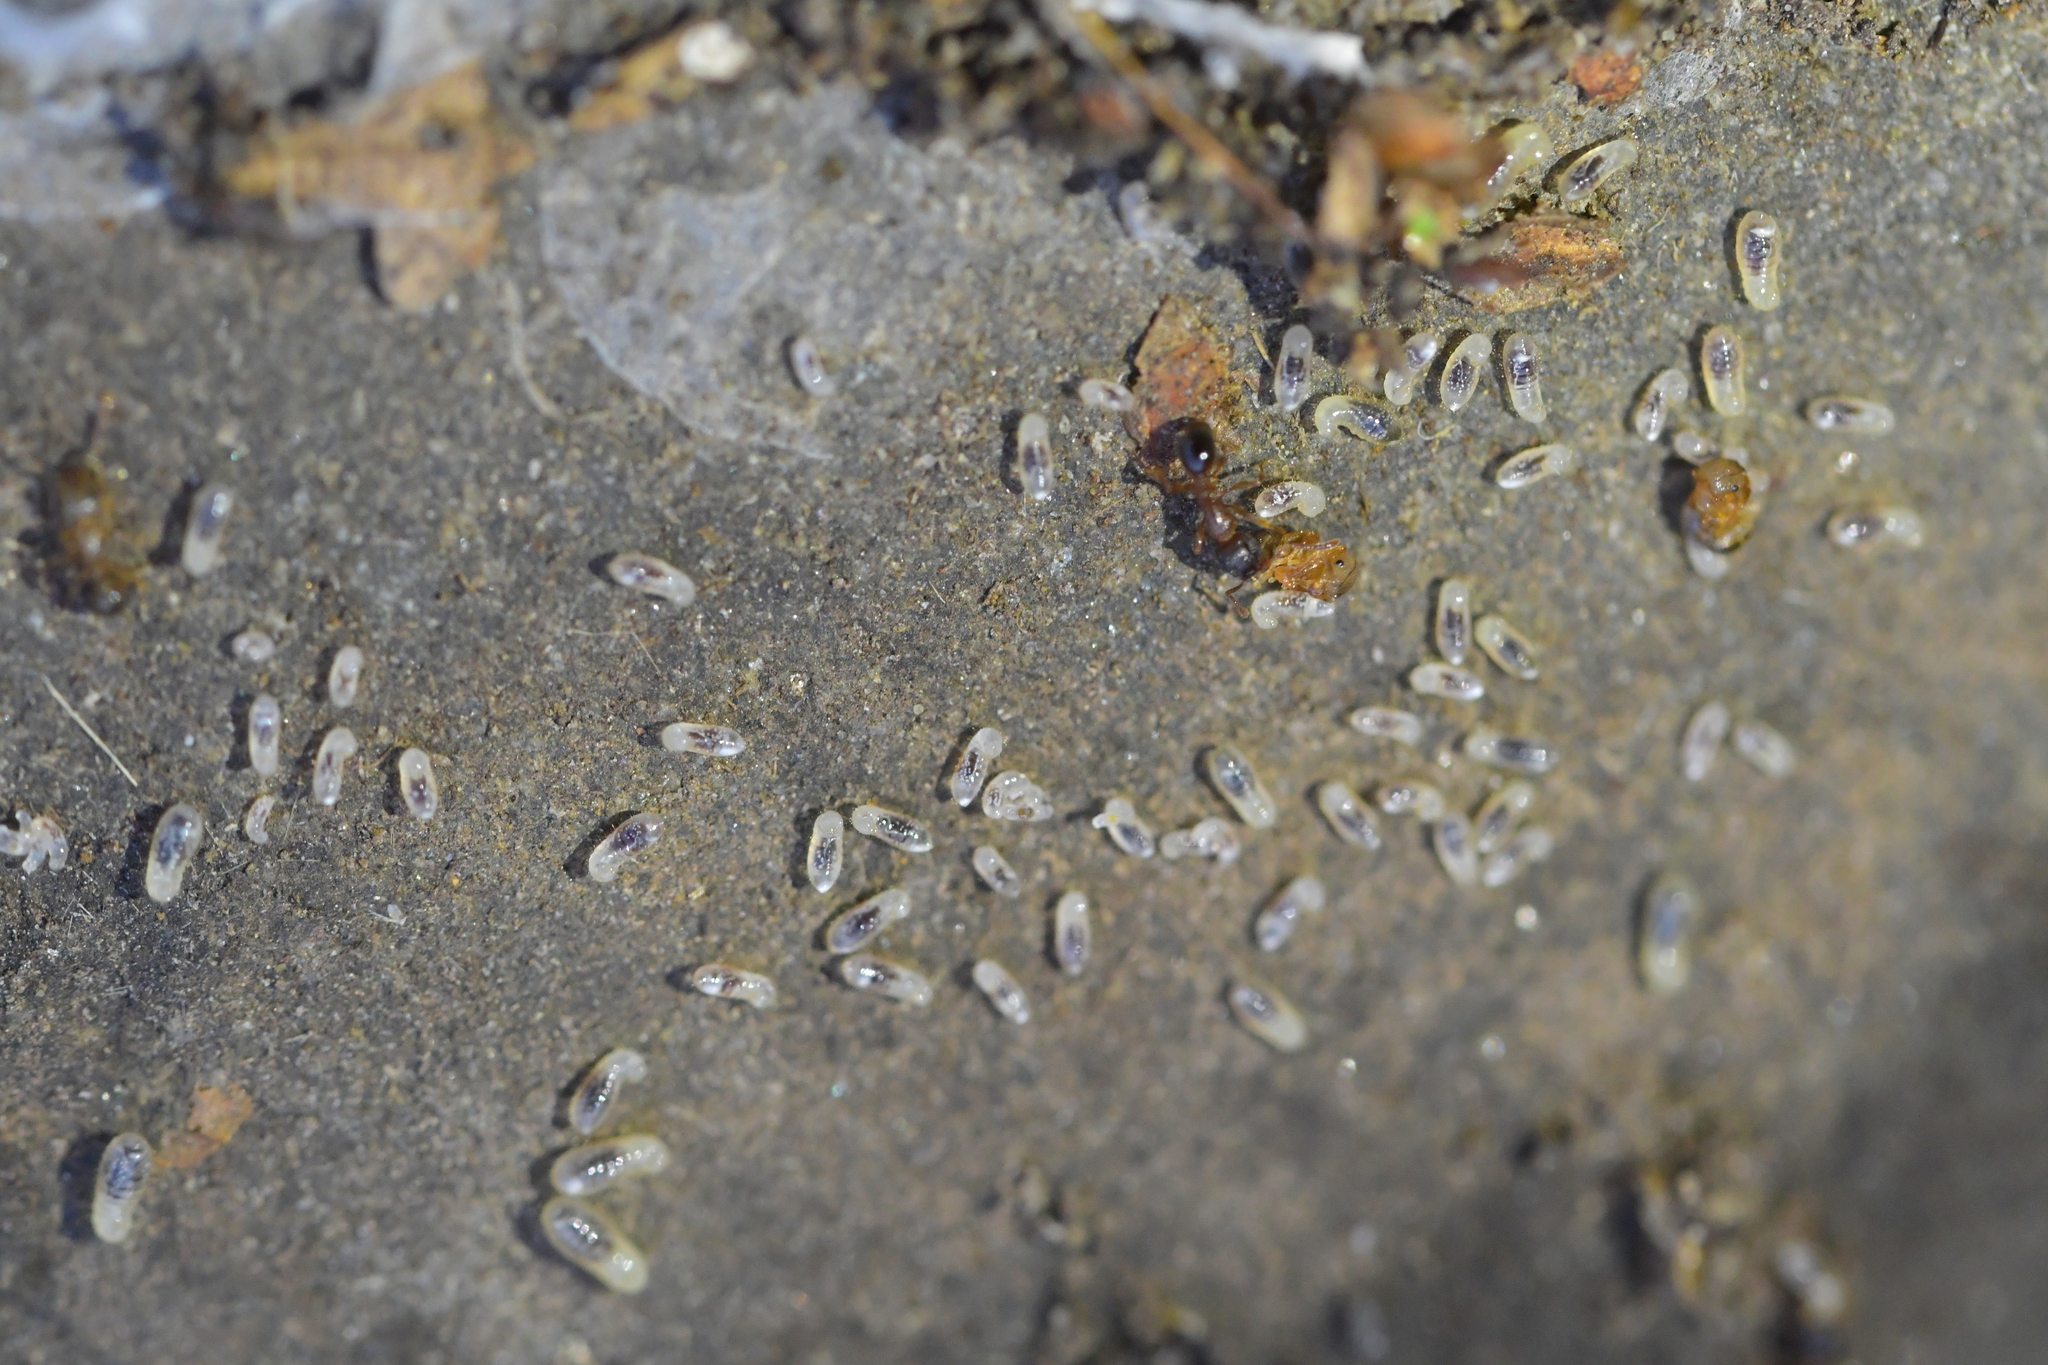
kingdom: Animalia
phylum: Arthropoda
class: Insecta
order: Hymenoptera
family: Formicidae
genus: Tetramorium
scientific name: Tetramorium grassii
